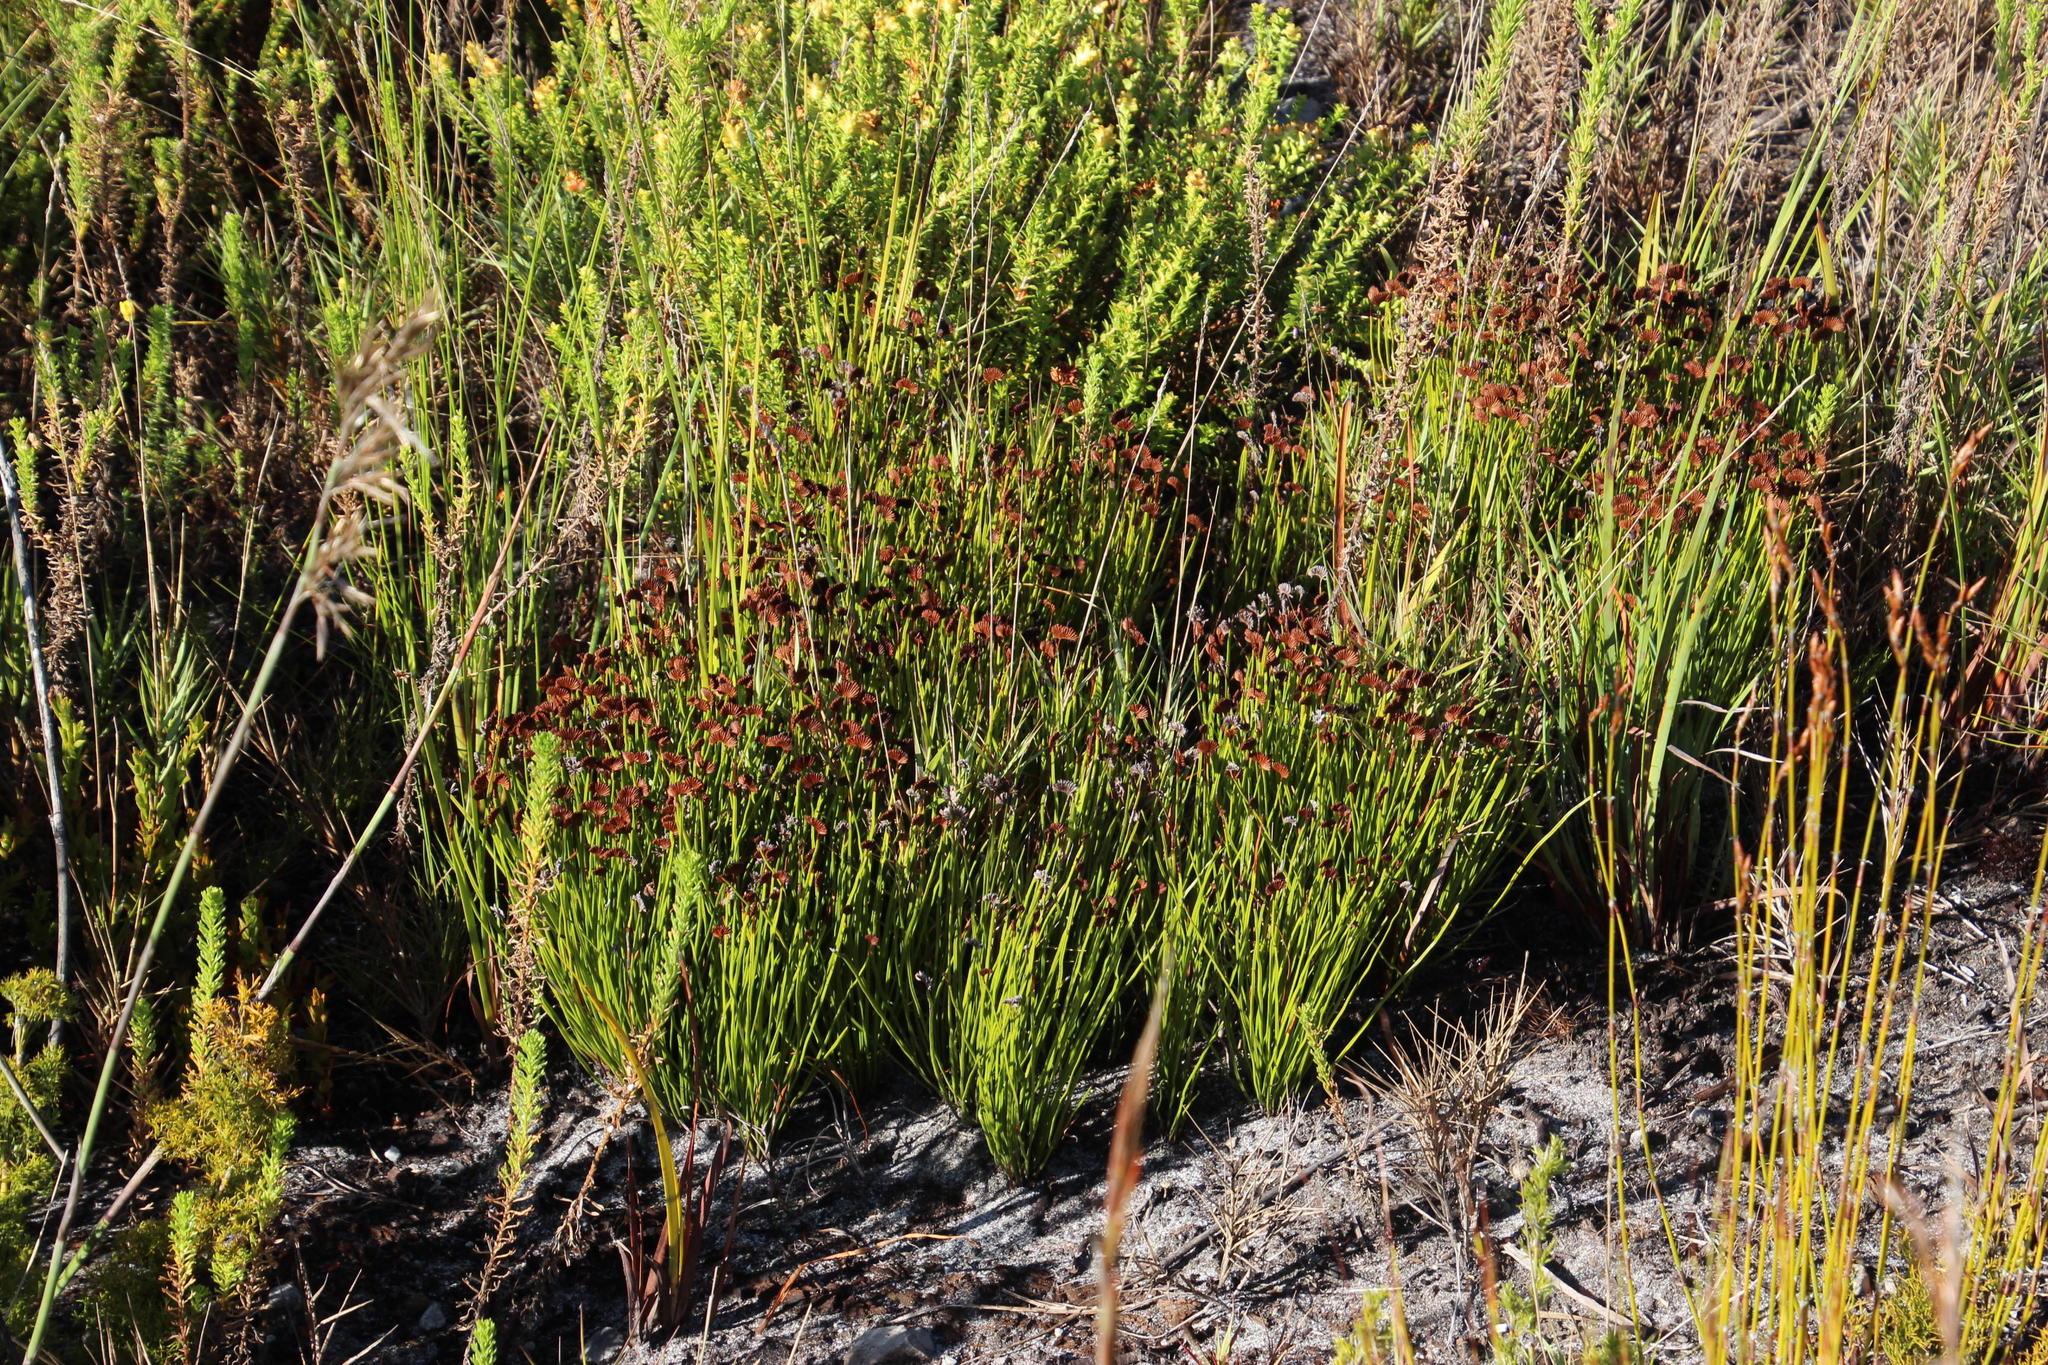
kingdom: Plantae
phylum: Tracheophyta
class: Polypodiopsida
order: Schizaeales
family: Schizaeaceae
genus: Schizaea
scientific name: Schizaea pectinata
